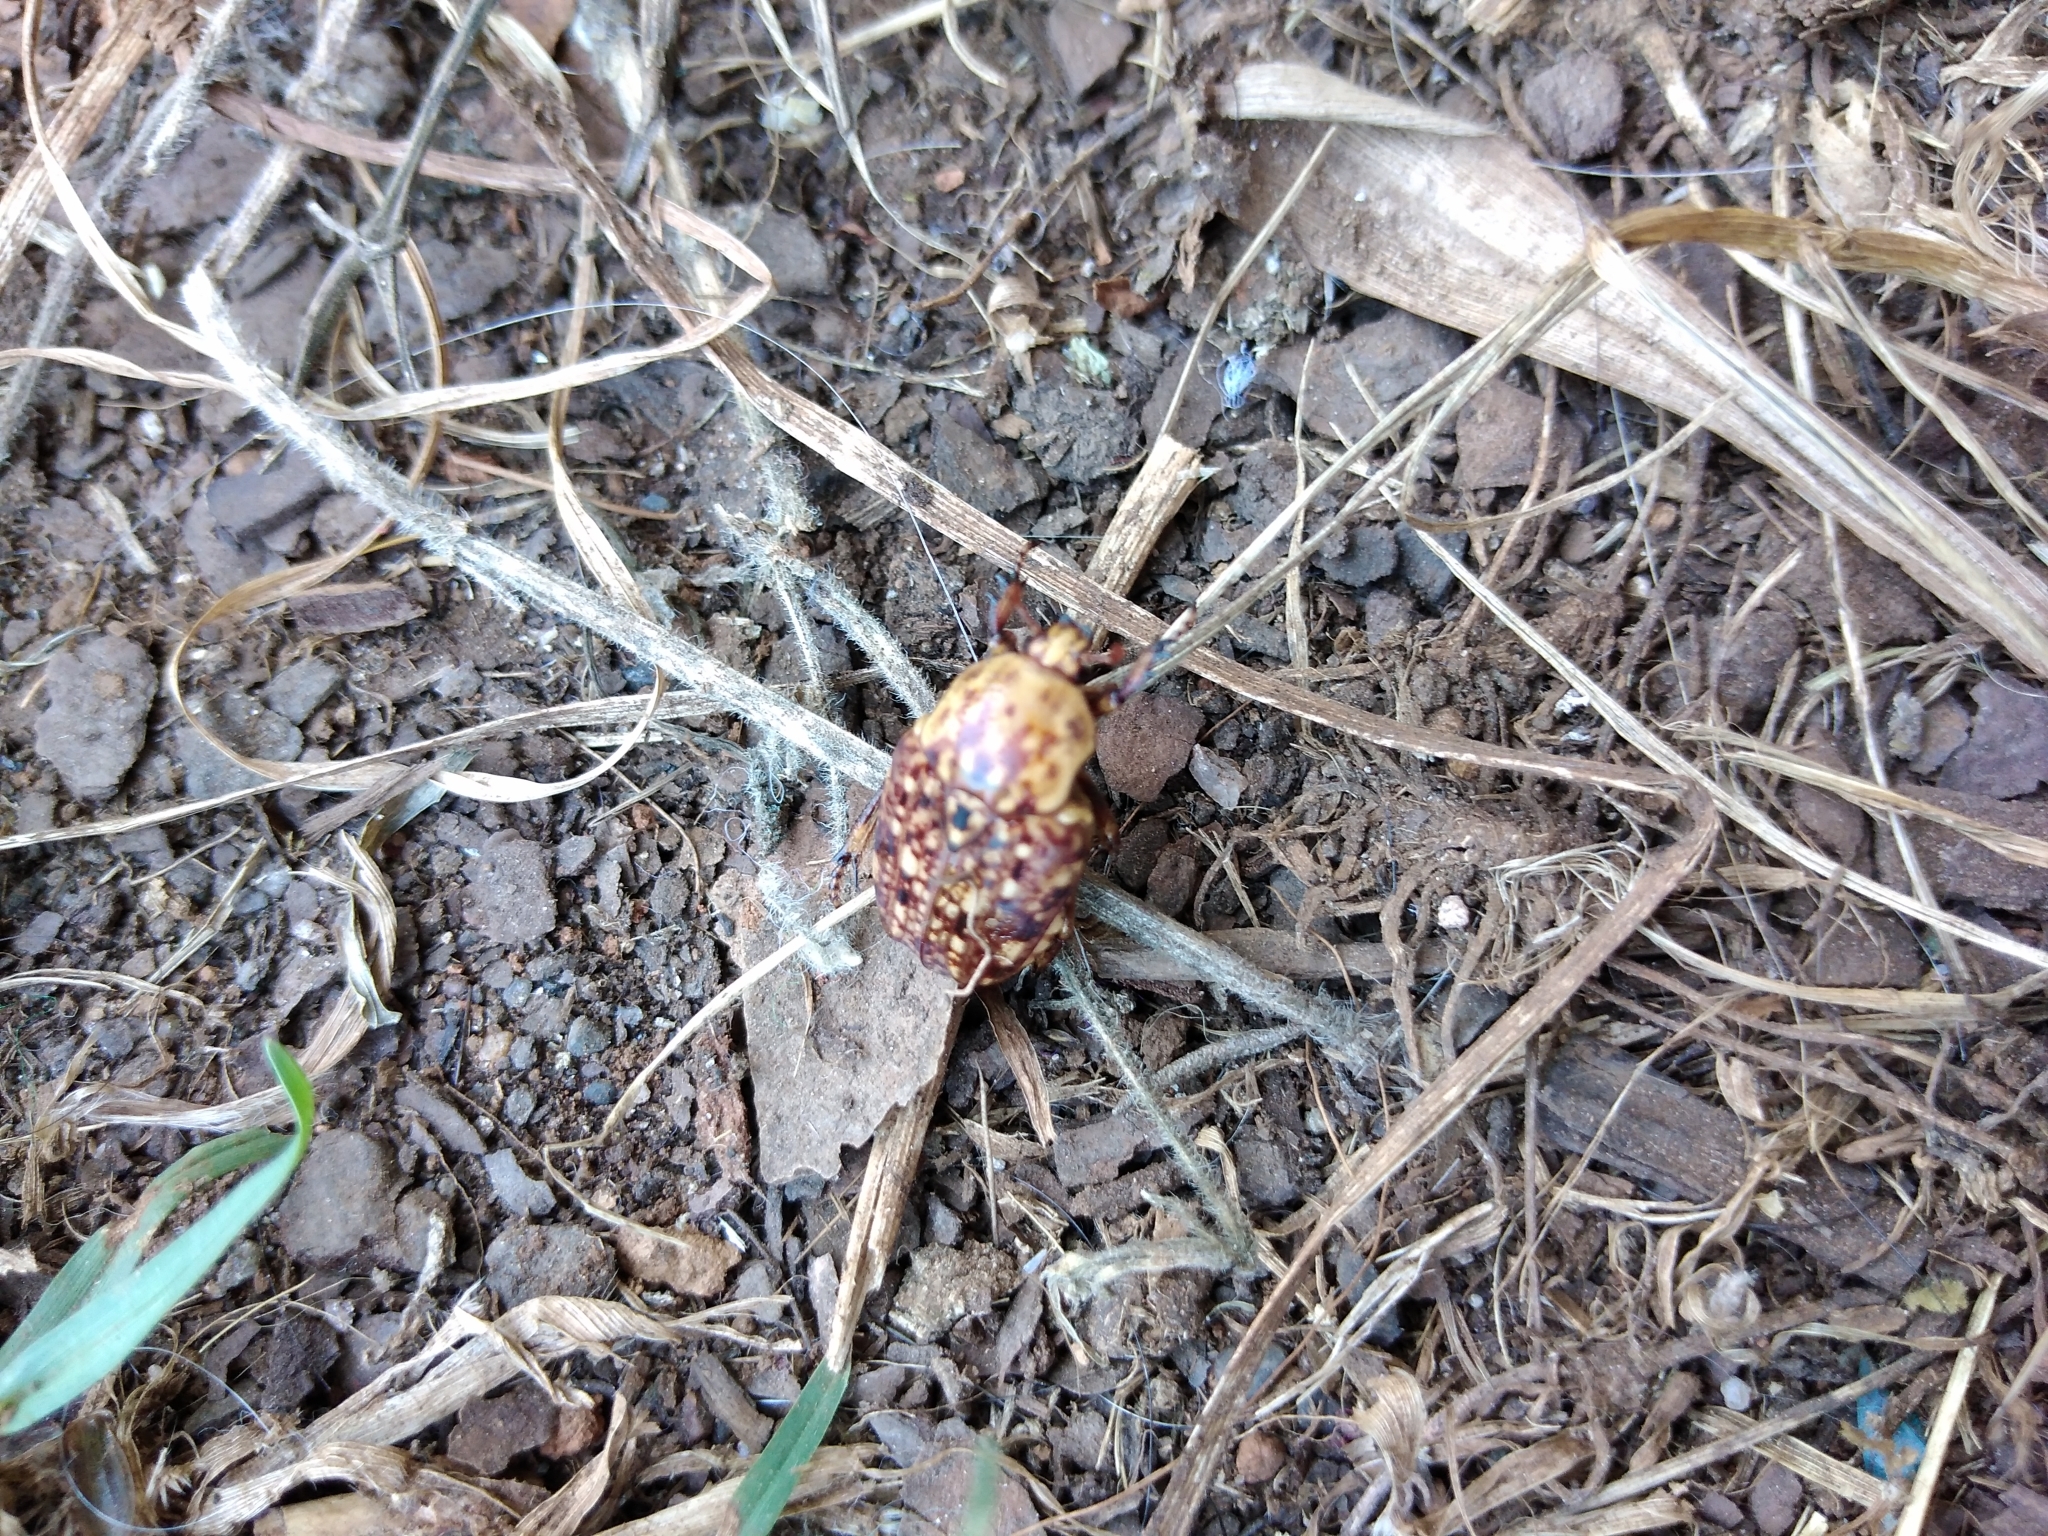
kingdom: Animalia
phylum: Arthropoda
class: Insecta
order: Coleoptera
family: Scarabaeidae
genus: Porphyronota
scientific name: Porphyronota hebraea
